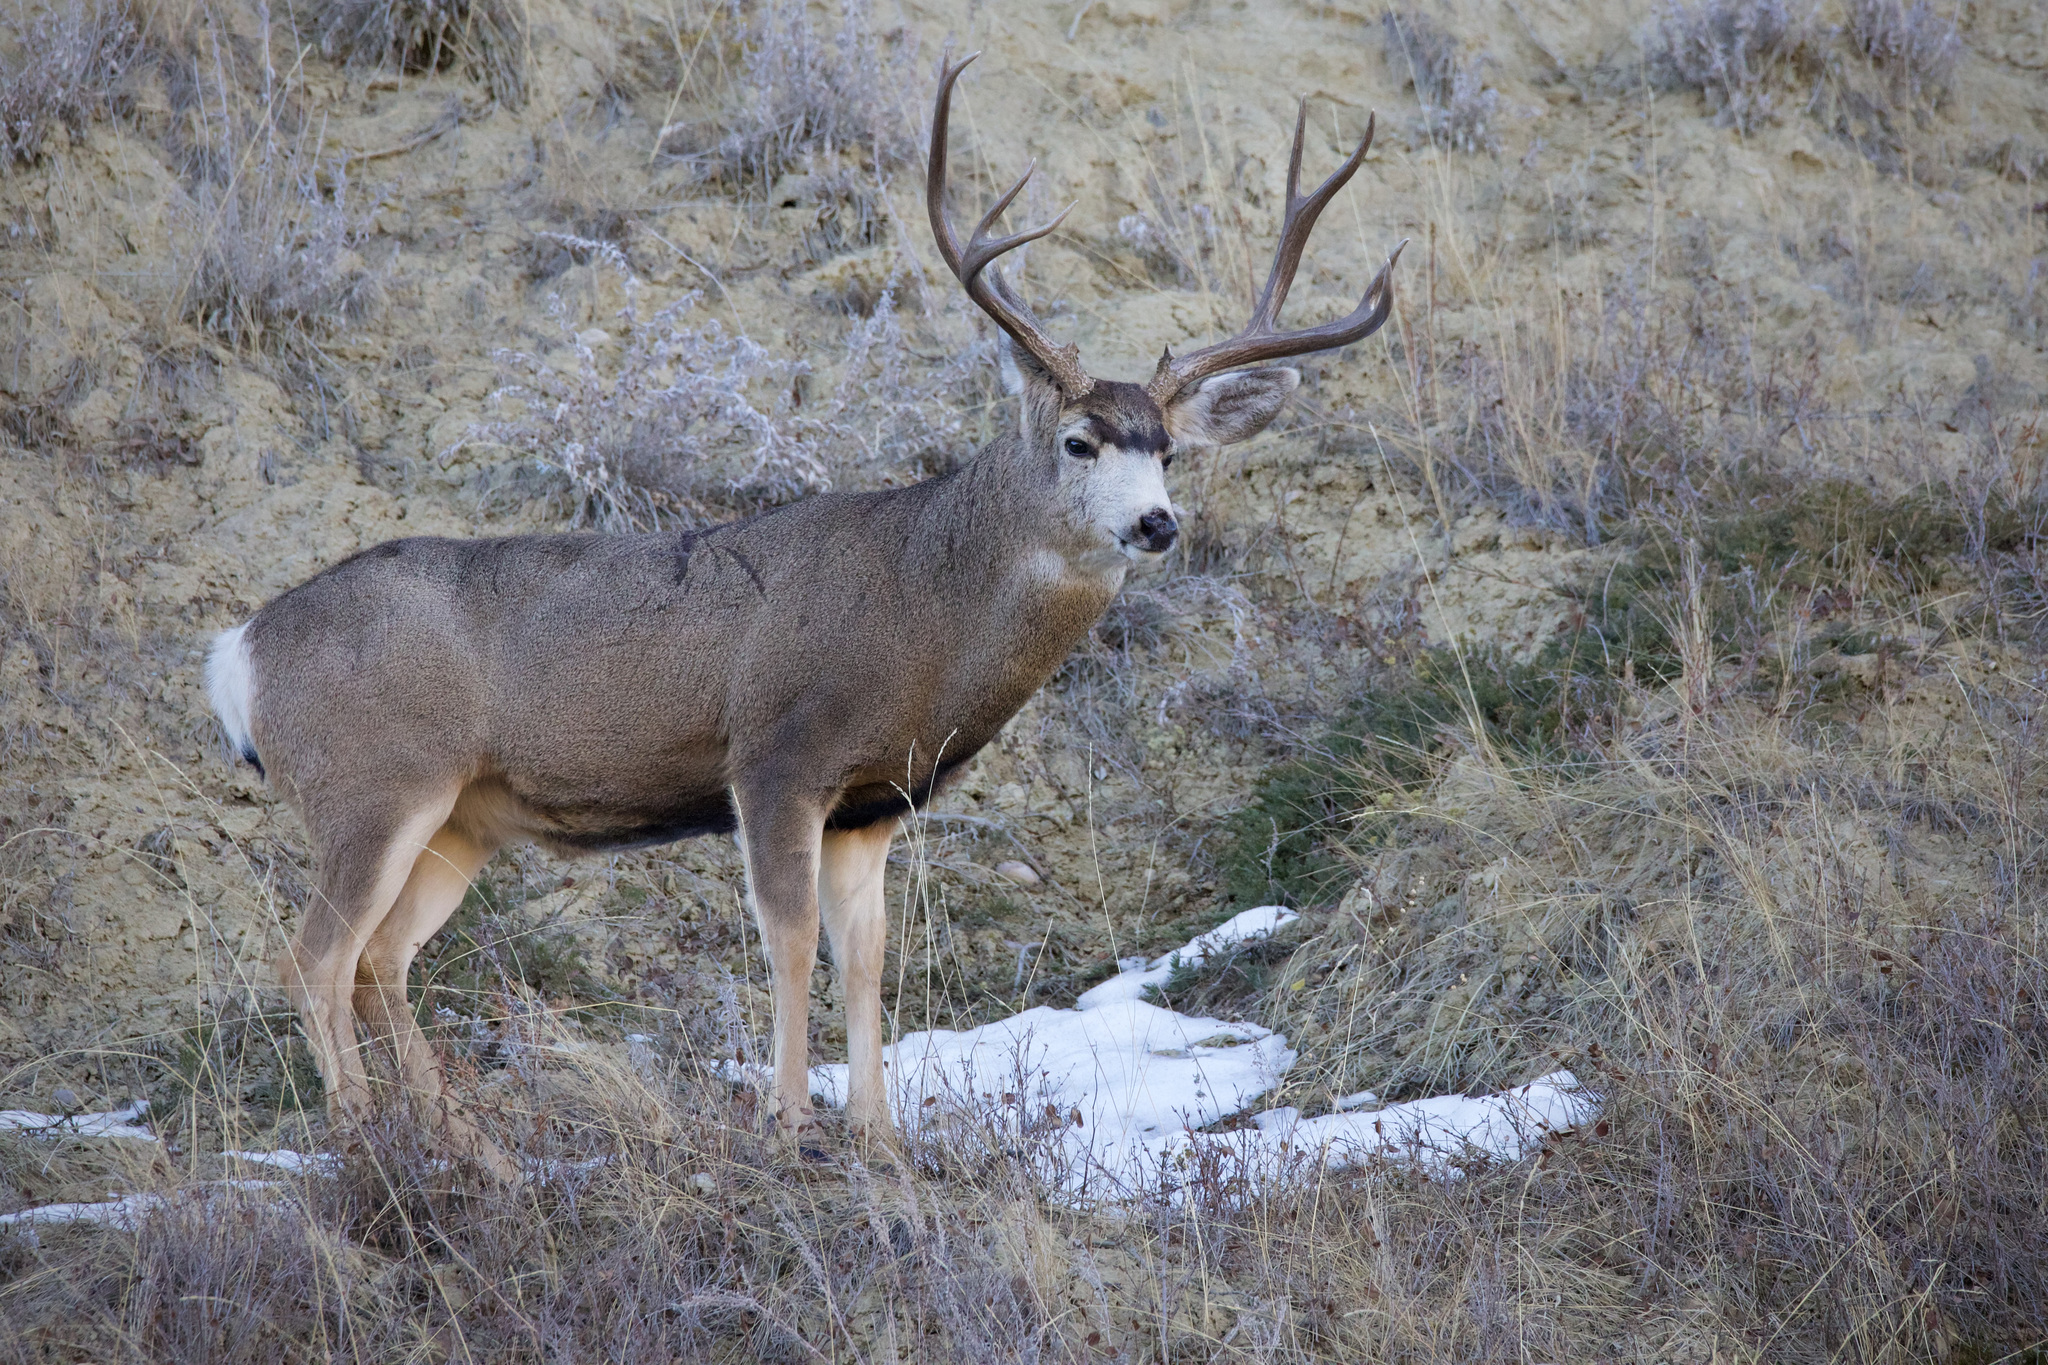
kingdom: Animalia
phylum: Chordata
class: Mammalia
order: Artiodactyla
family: Cervidae
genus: Odocoileus
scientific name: Odocoileus hemionus
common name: Mule deer
